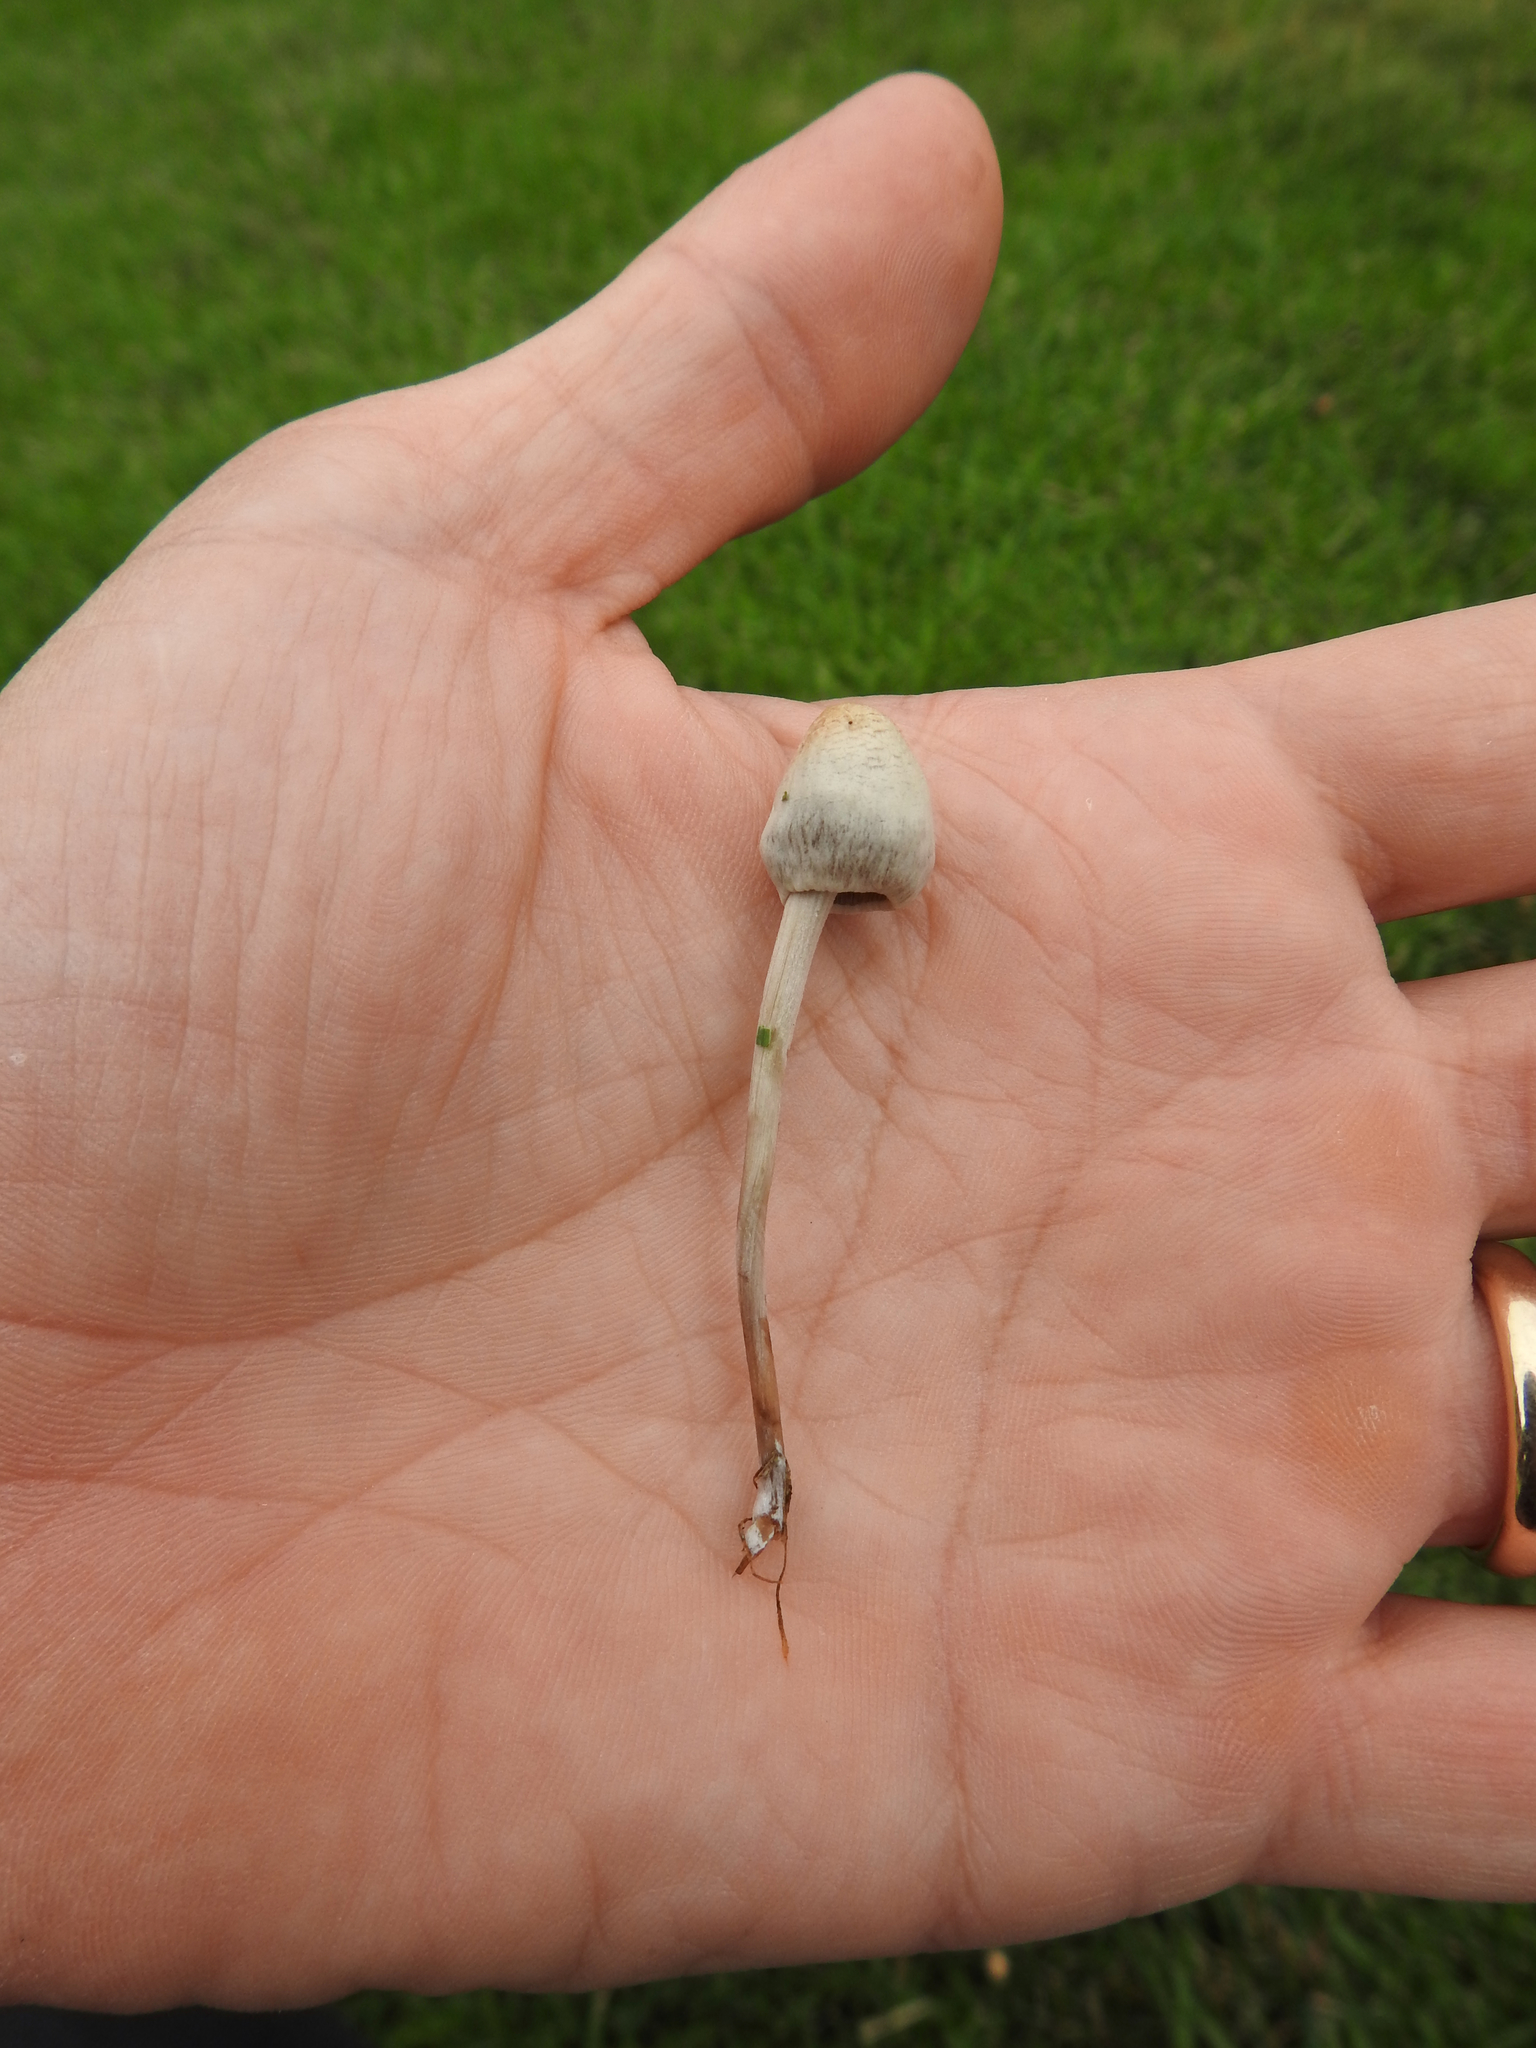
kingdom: Fungi
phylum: Basidiomycota
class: Agaricomycetes
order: Agaricales
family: Bolbitiaceae
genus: Panaeolus
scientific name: Panaeolus fimicola
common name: Turf mottlegill
